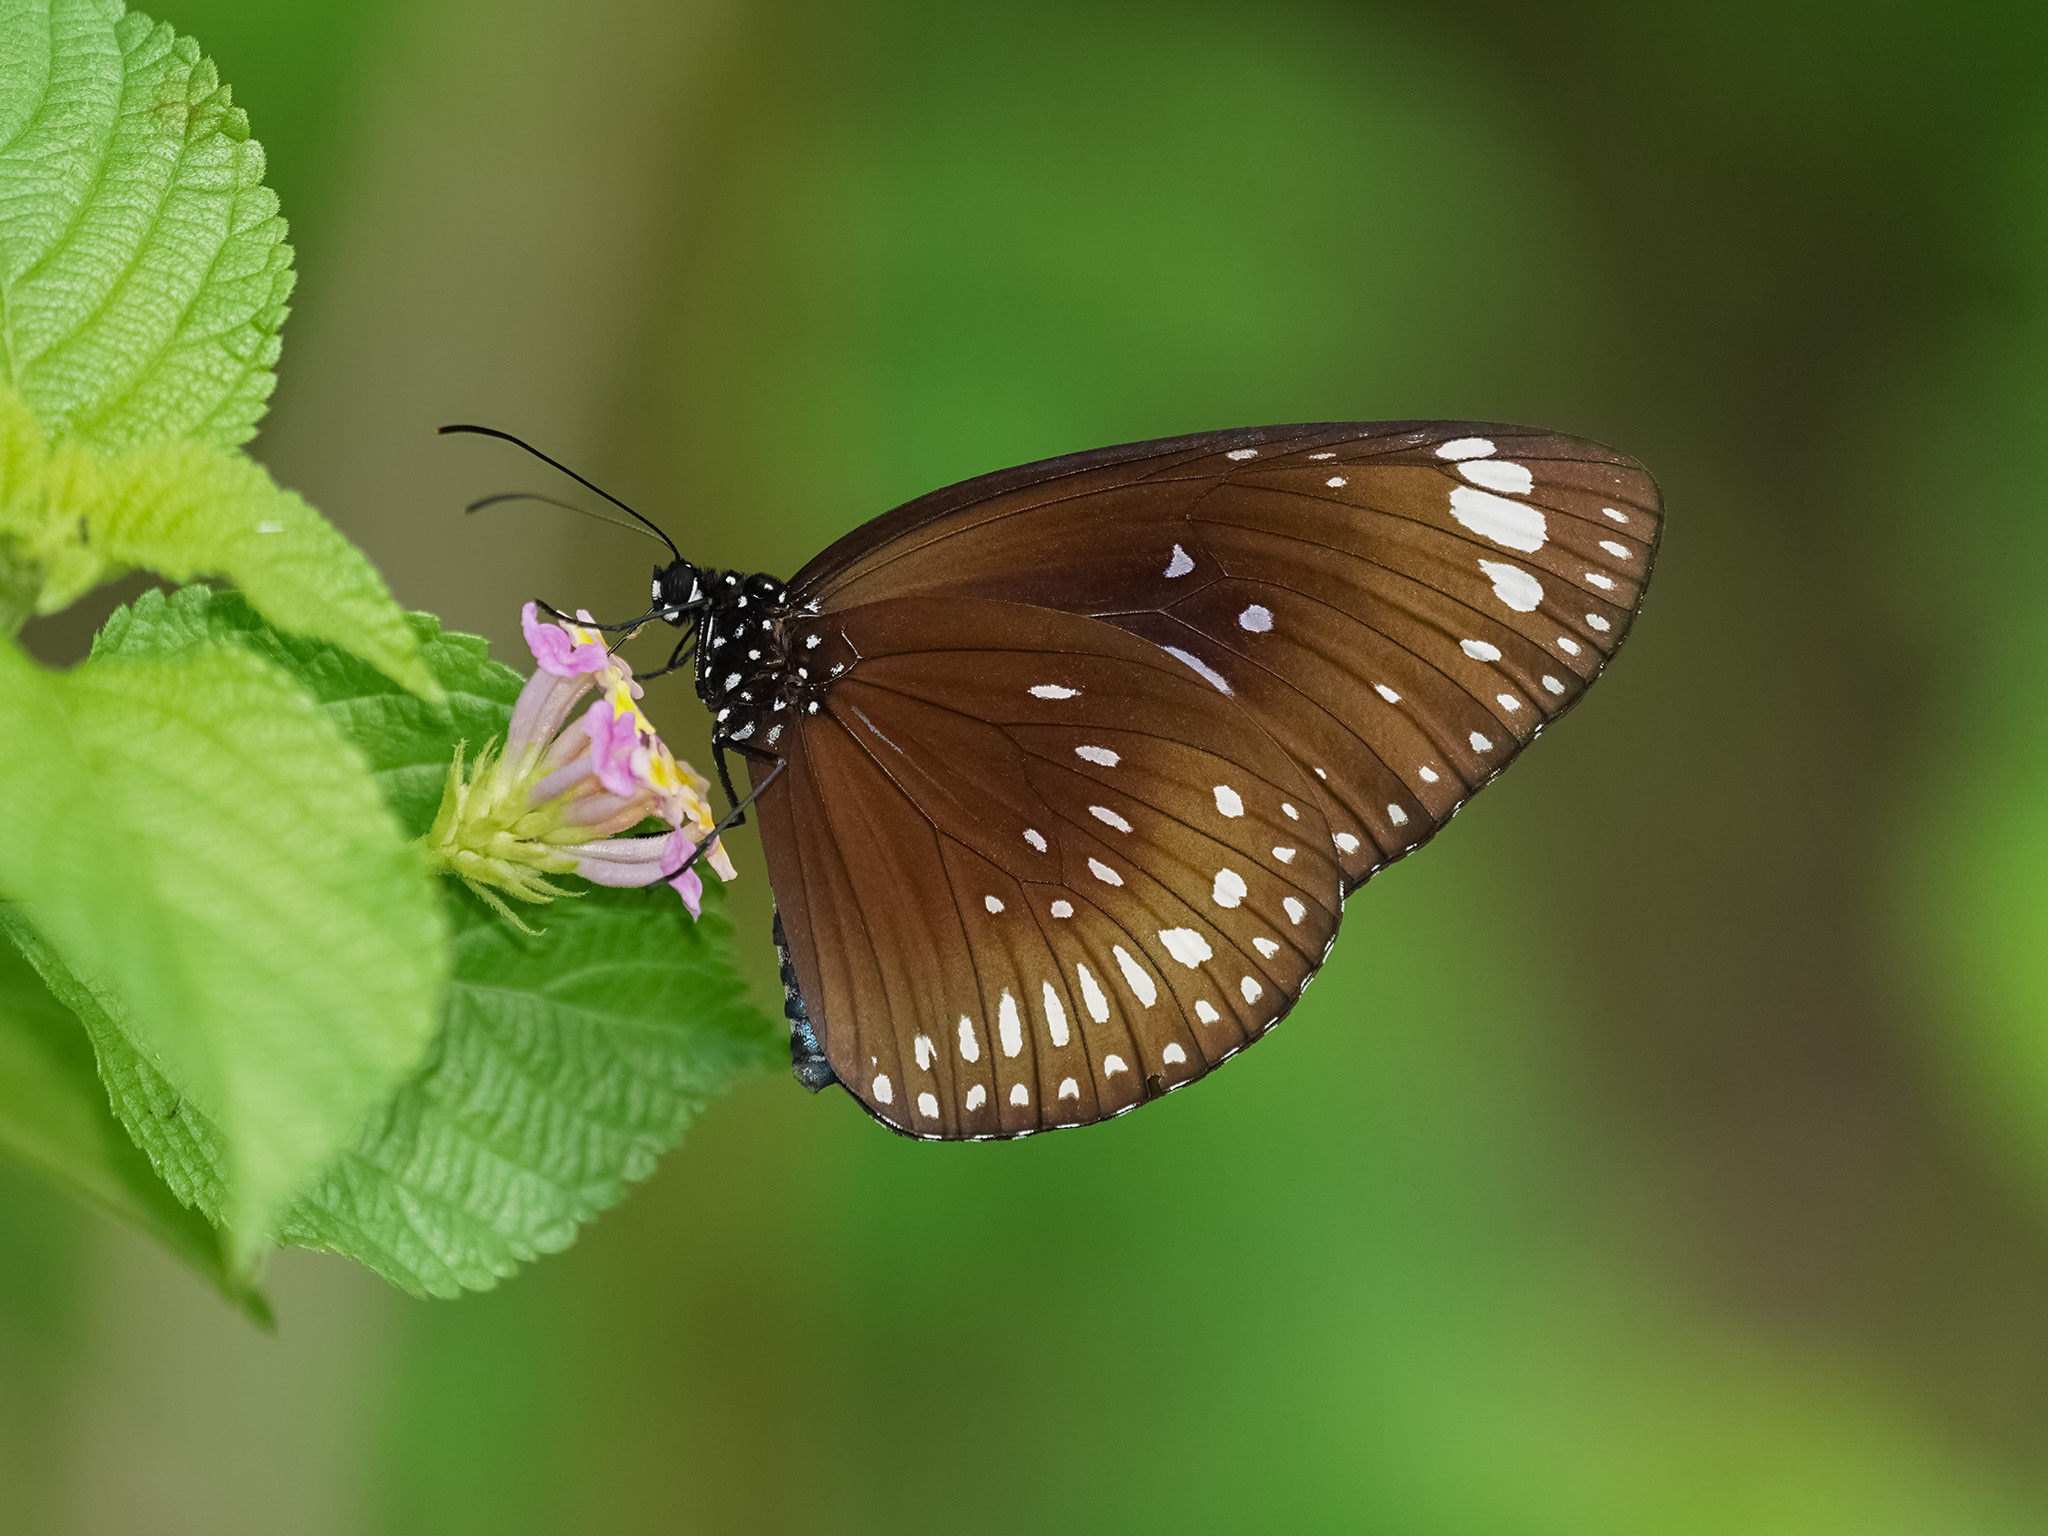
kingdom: Animalia
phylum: Arthropoda
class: Insecta
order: Lepidoptera
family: Nymphalidae
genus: Euploea
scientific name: Euploea midamus
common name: Blue-spotted crow butterfly
